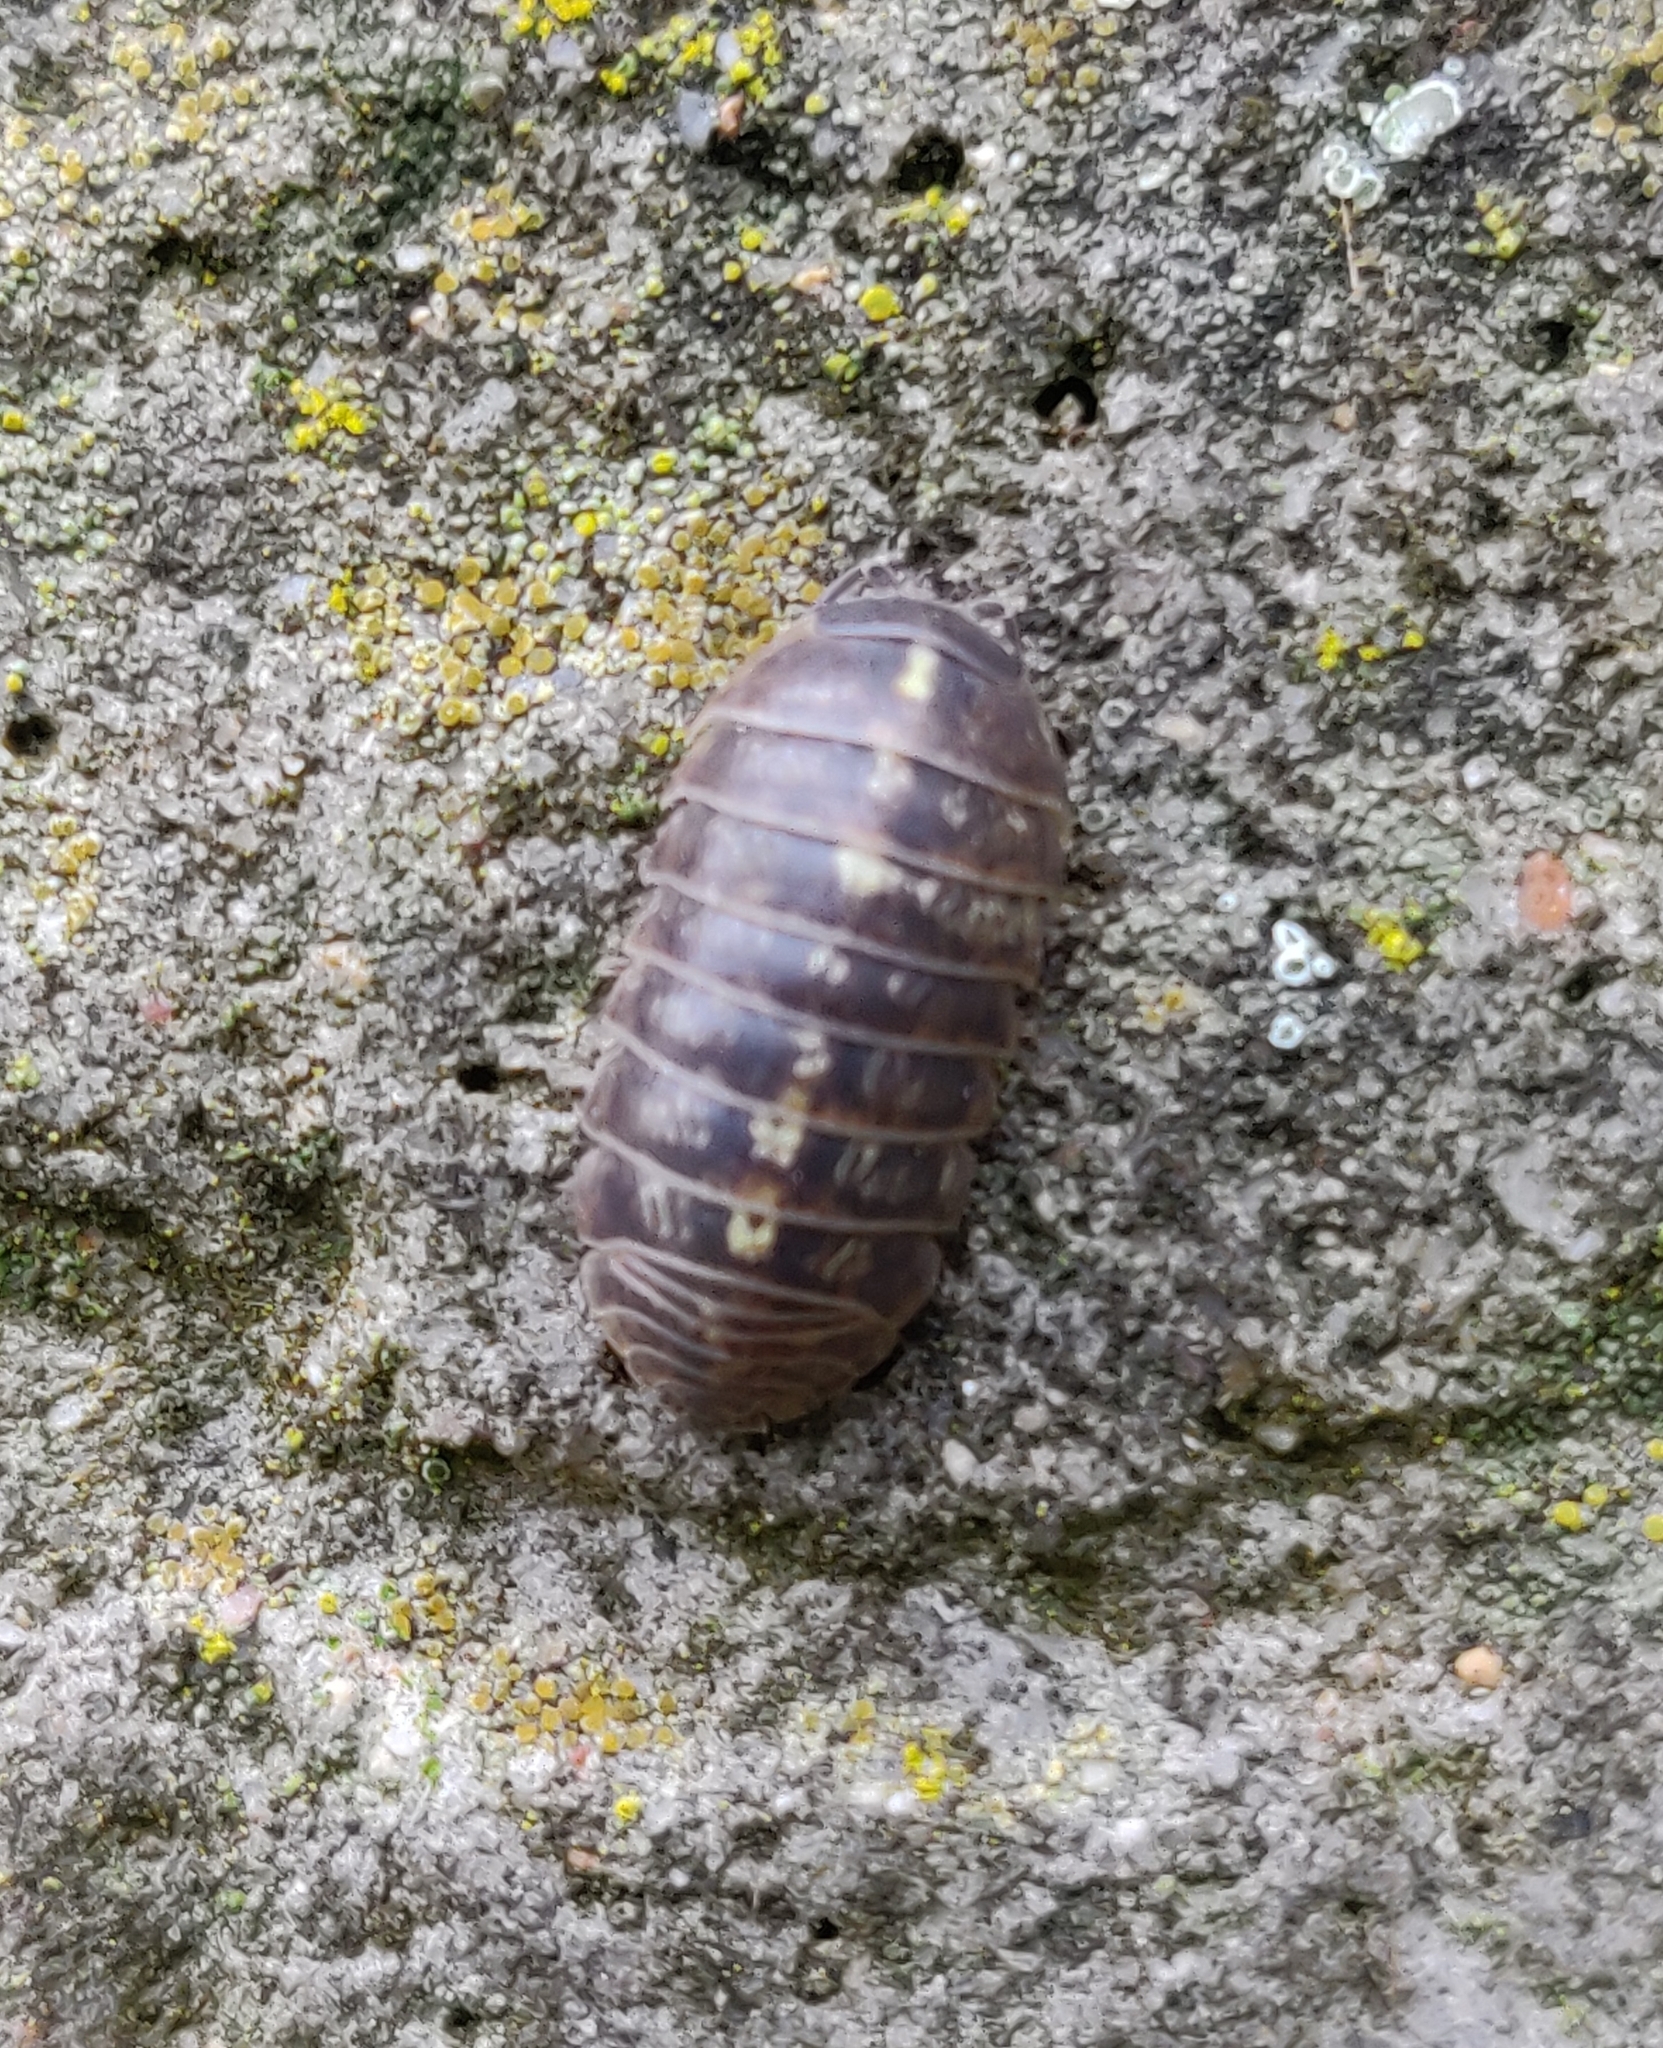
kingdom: Animalia
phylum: Arthropoda
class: Malacostraca
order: Isopoda
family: Armadillidiidae
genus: Armadillidium
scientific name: Armadillidium vulgare
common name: Common pill woodlouse
